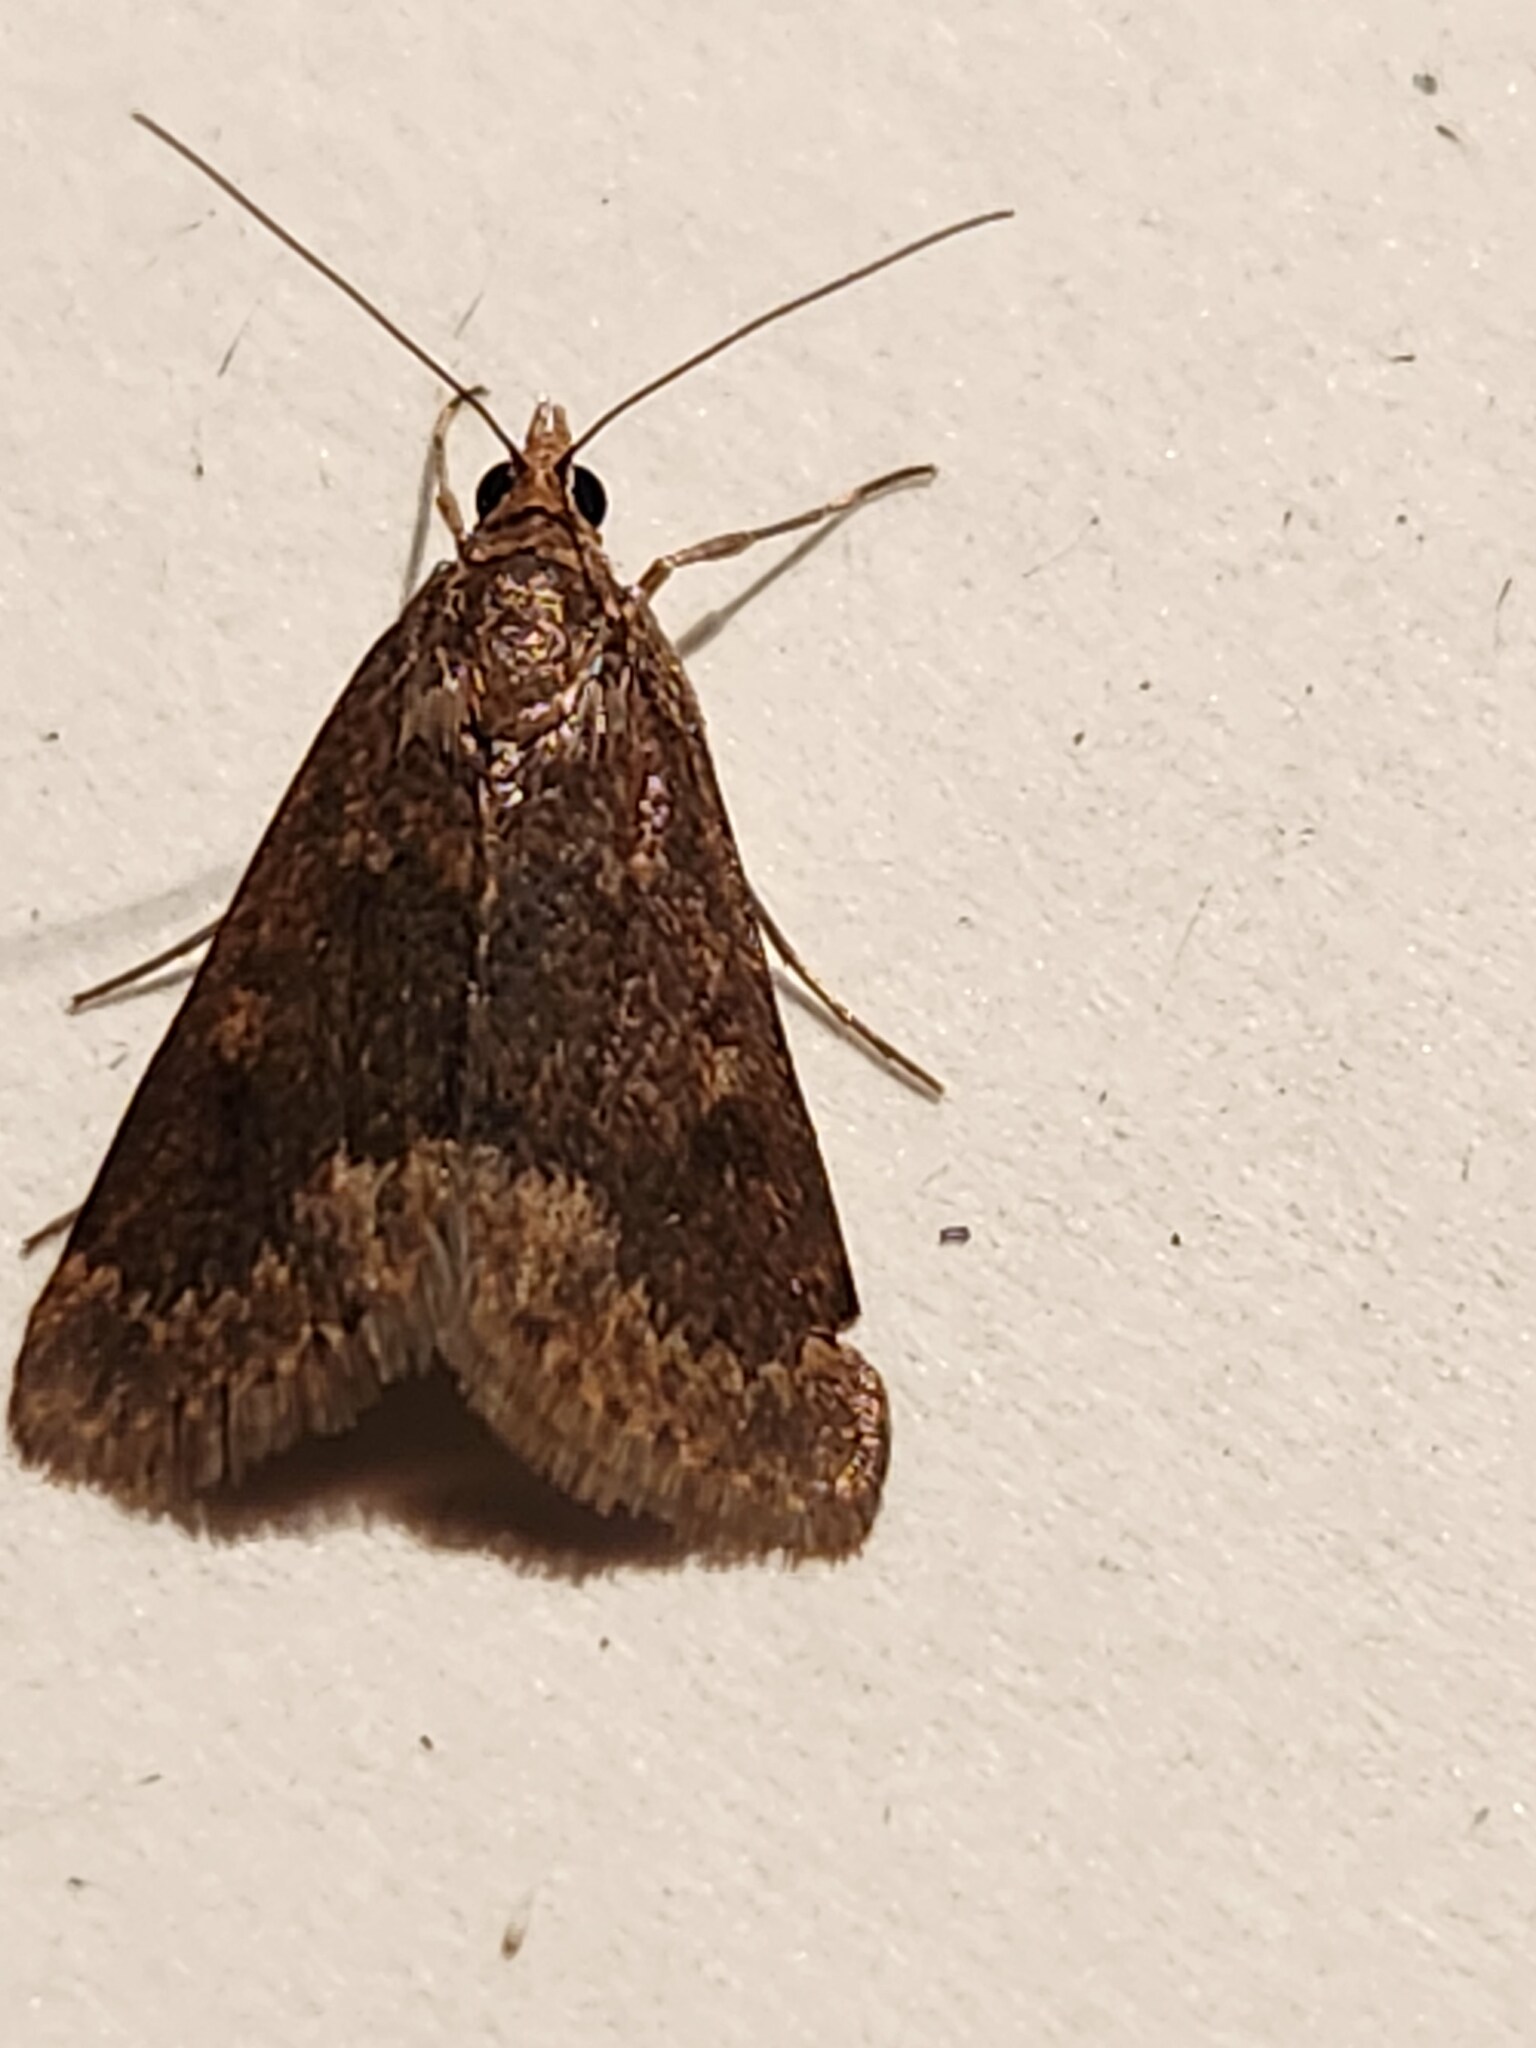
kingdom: Animalia
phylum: Arthropoda
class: Insecta
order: Lepidoptera
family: Crambidae
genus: Achyra
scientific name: Achyra rantalis
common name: Garden webworm
